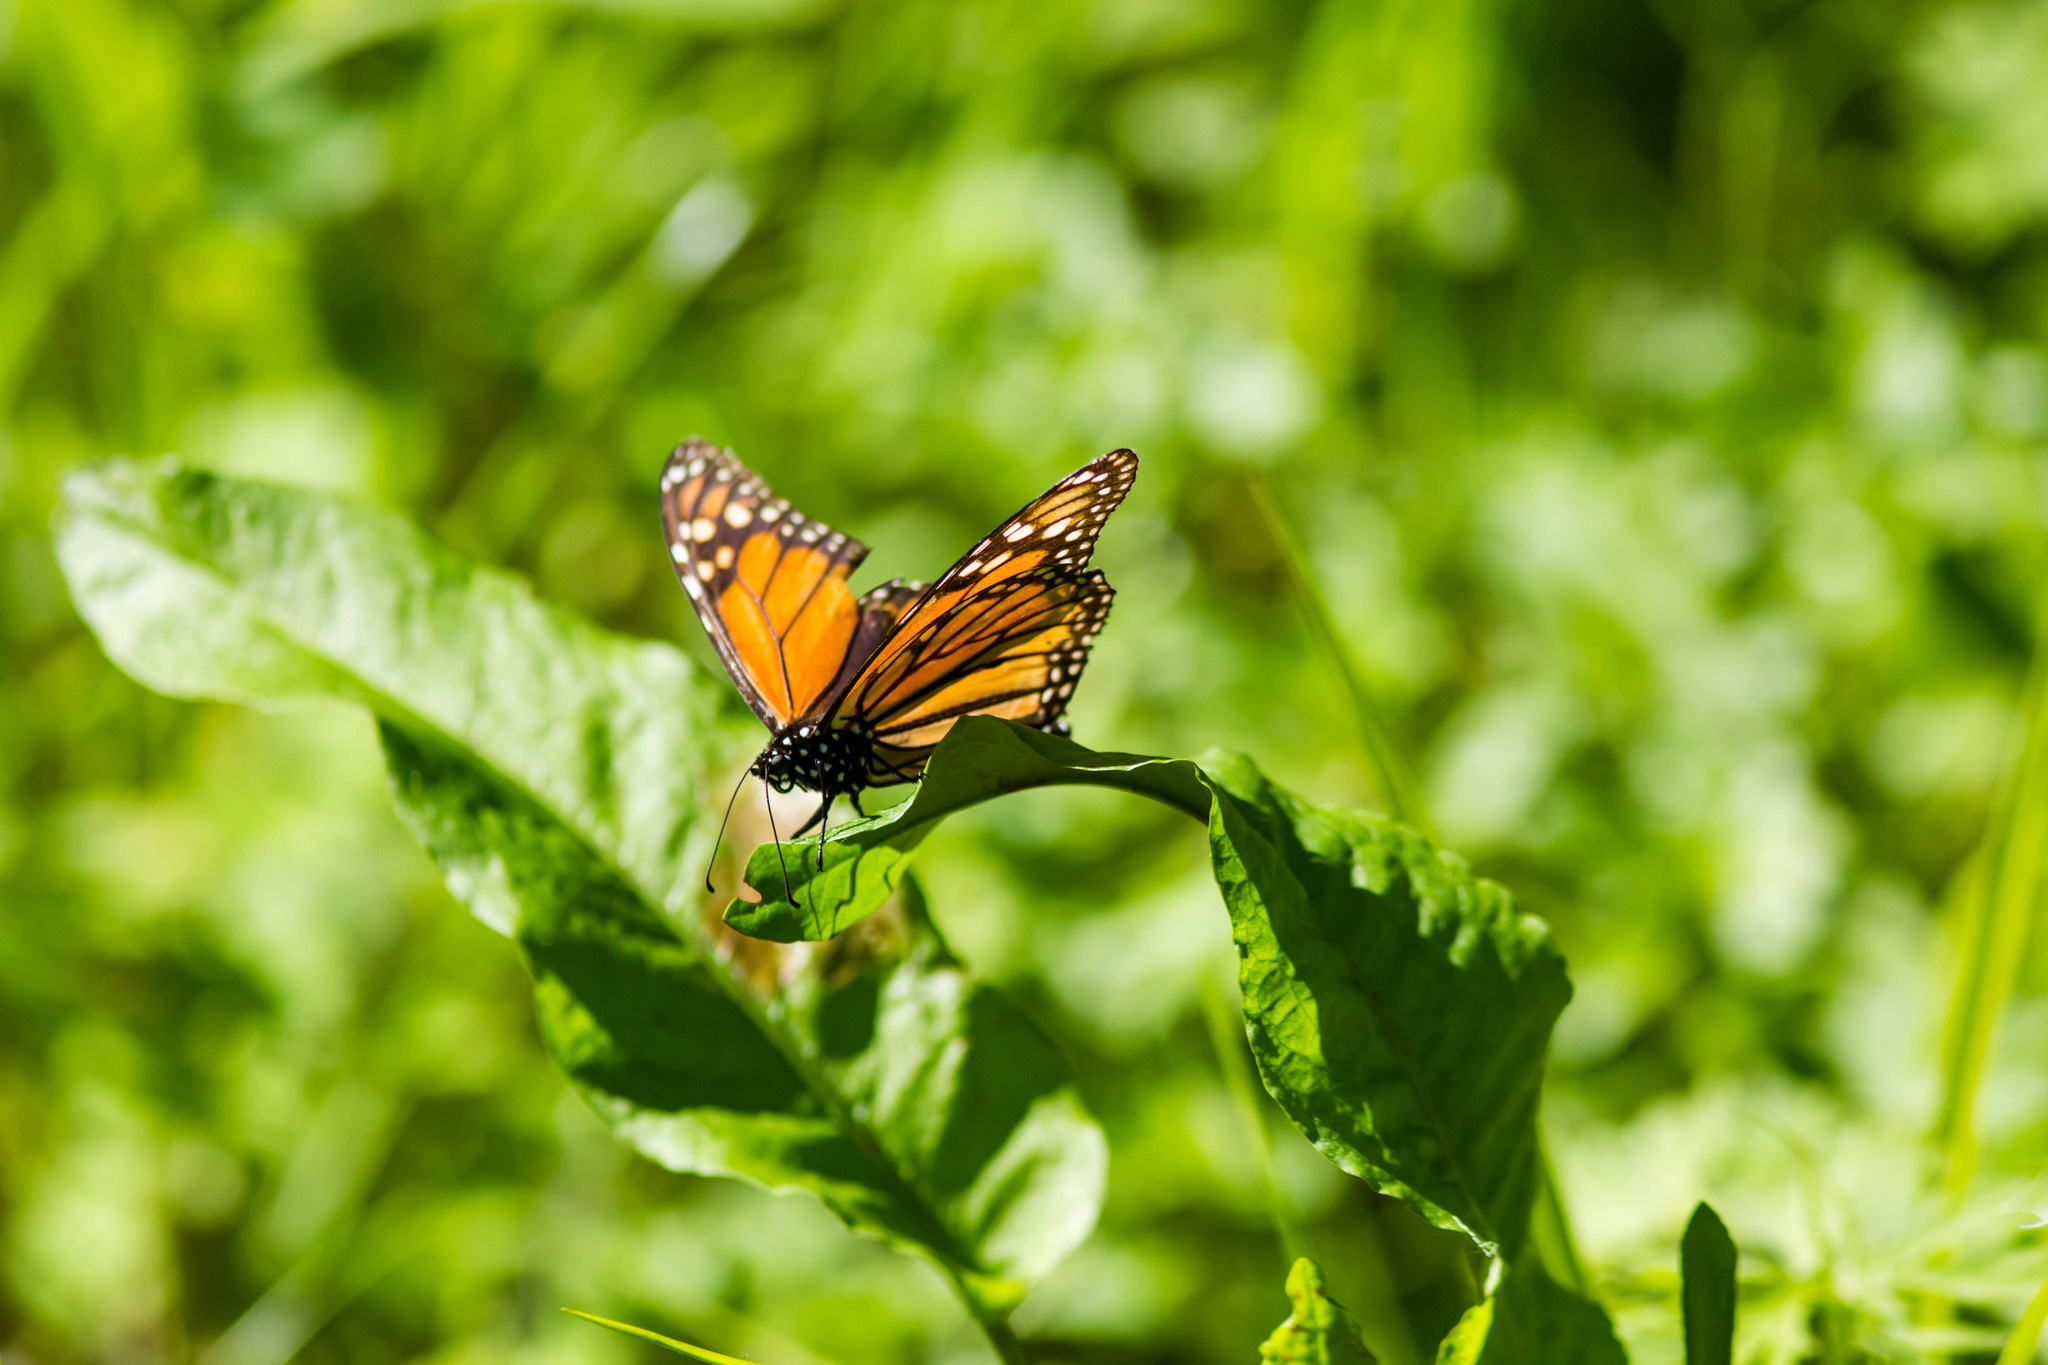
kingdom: Animalia
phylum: Arthropoda
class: Insecta
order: Lepidoptera
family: Nymphalidae
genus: Danaus
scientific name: Danaus plexippus
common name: Monarch
